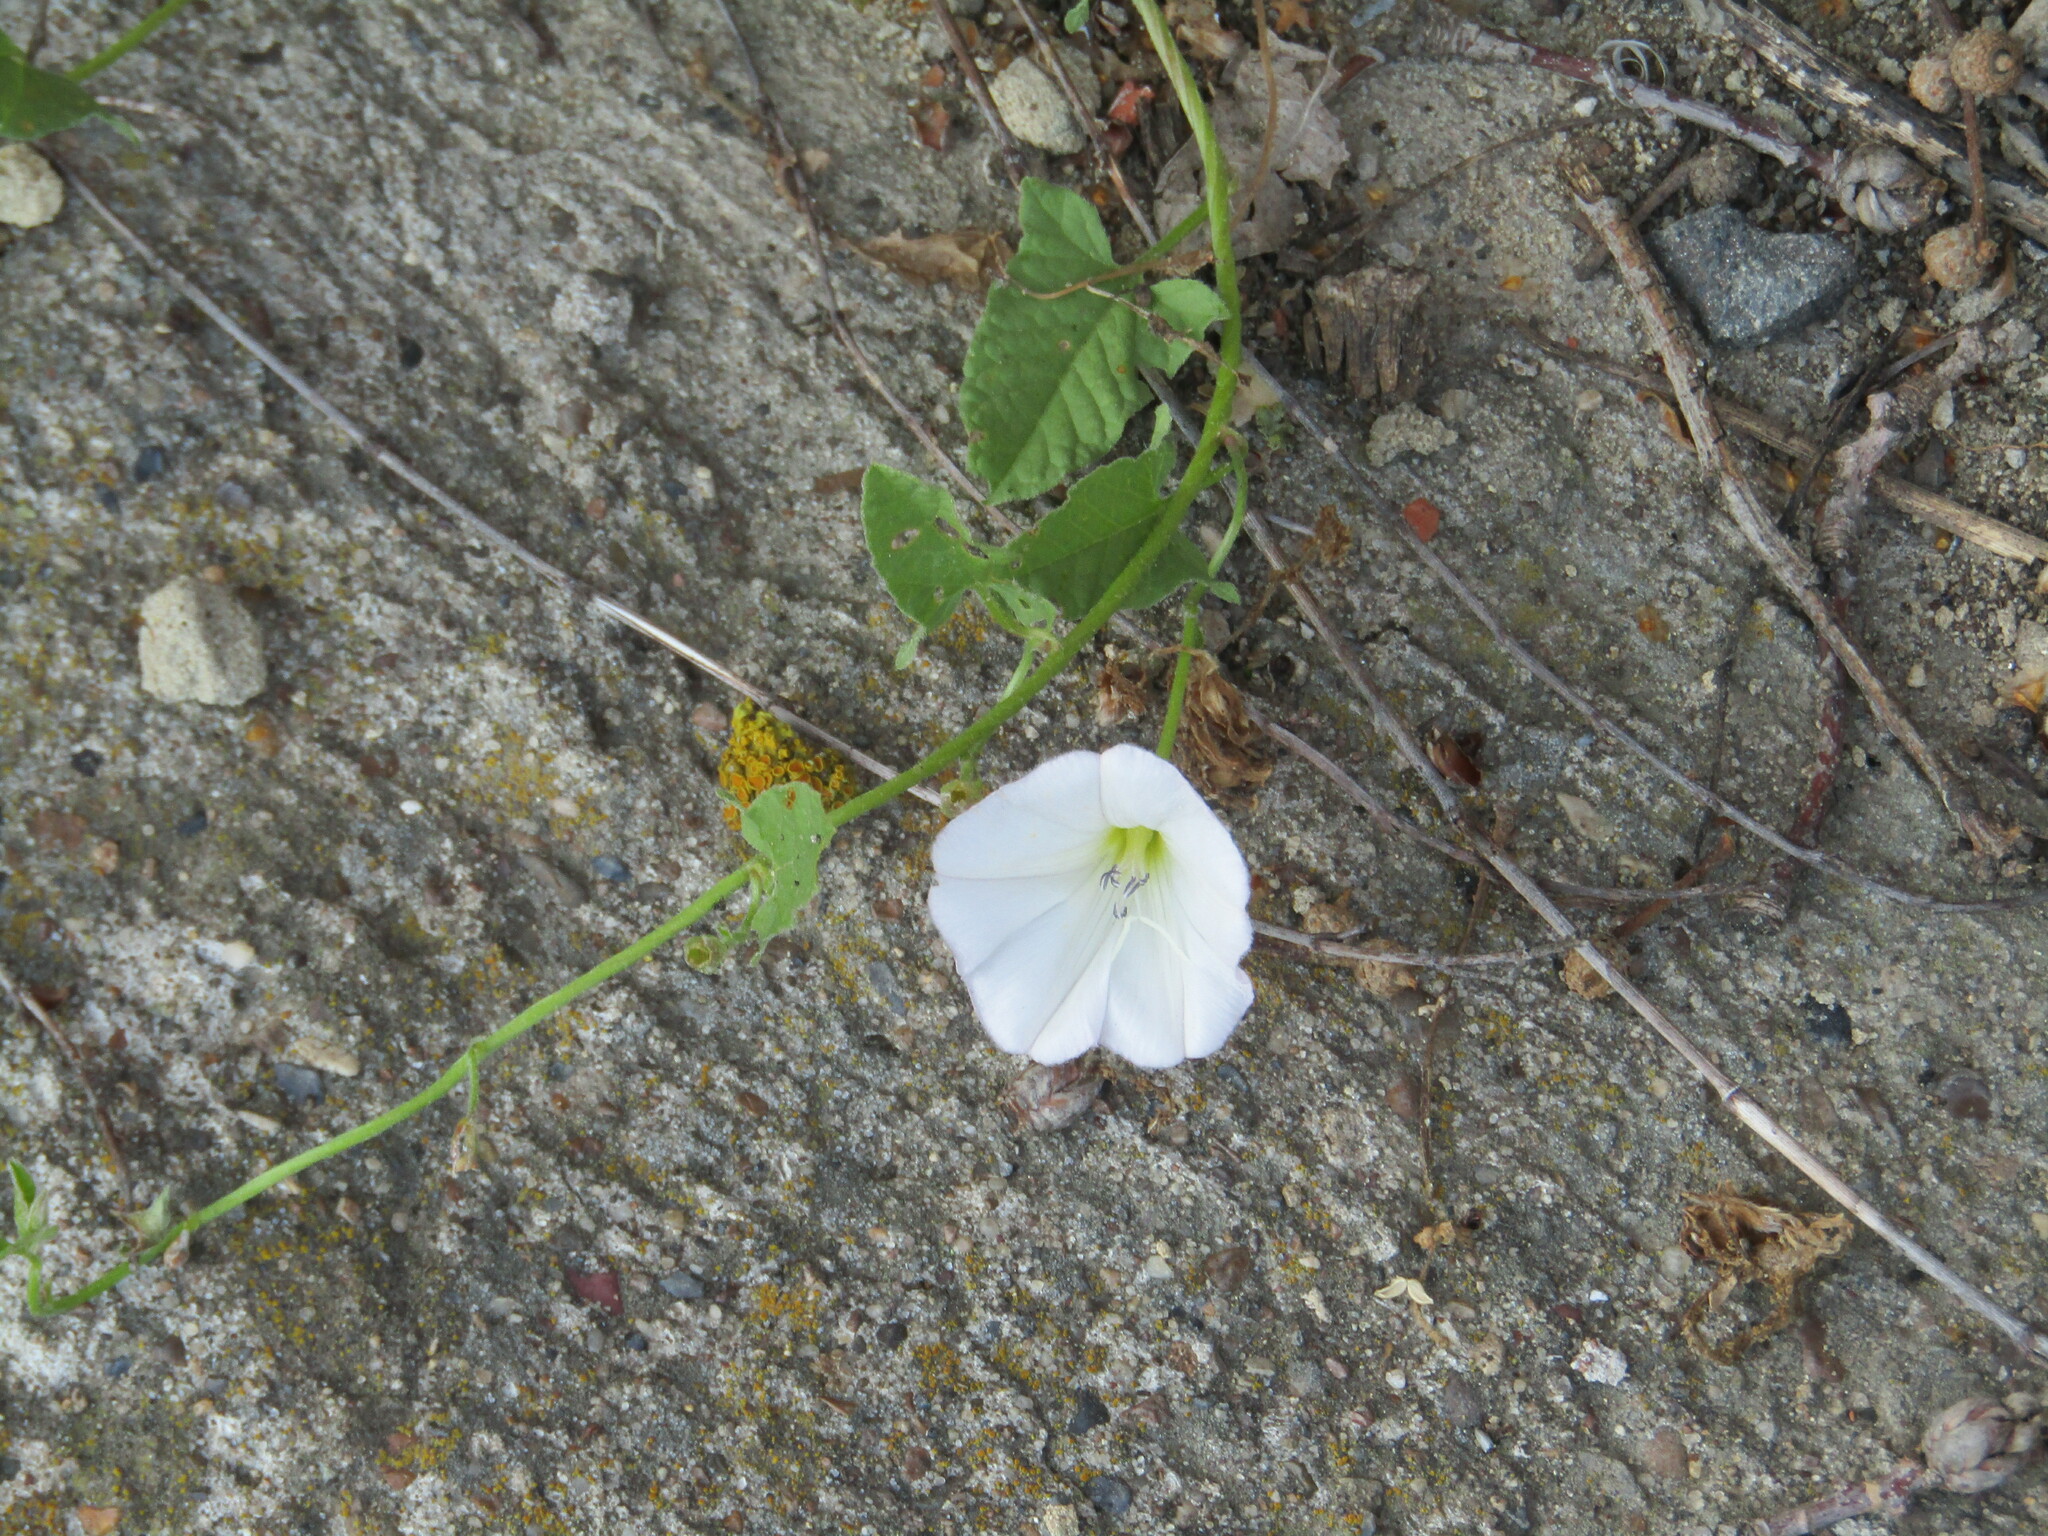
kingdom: Plantae
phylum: Tracheophyta
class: Magnoliopsida
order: Solanales
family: Convolvulaceae
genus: Convolvulus
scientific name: Convolvulus arvensis
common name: Field bindweed
